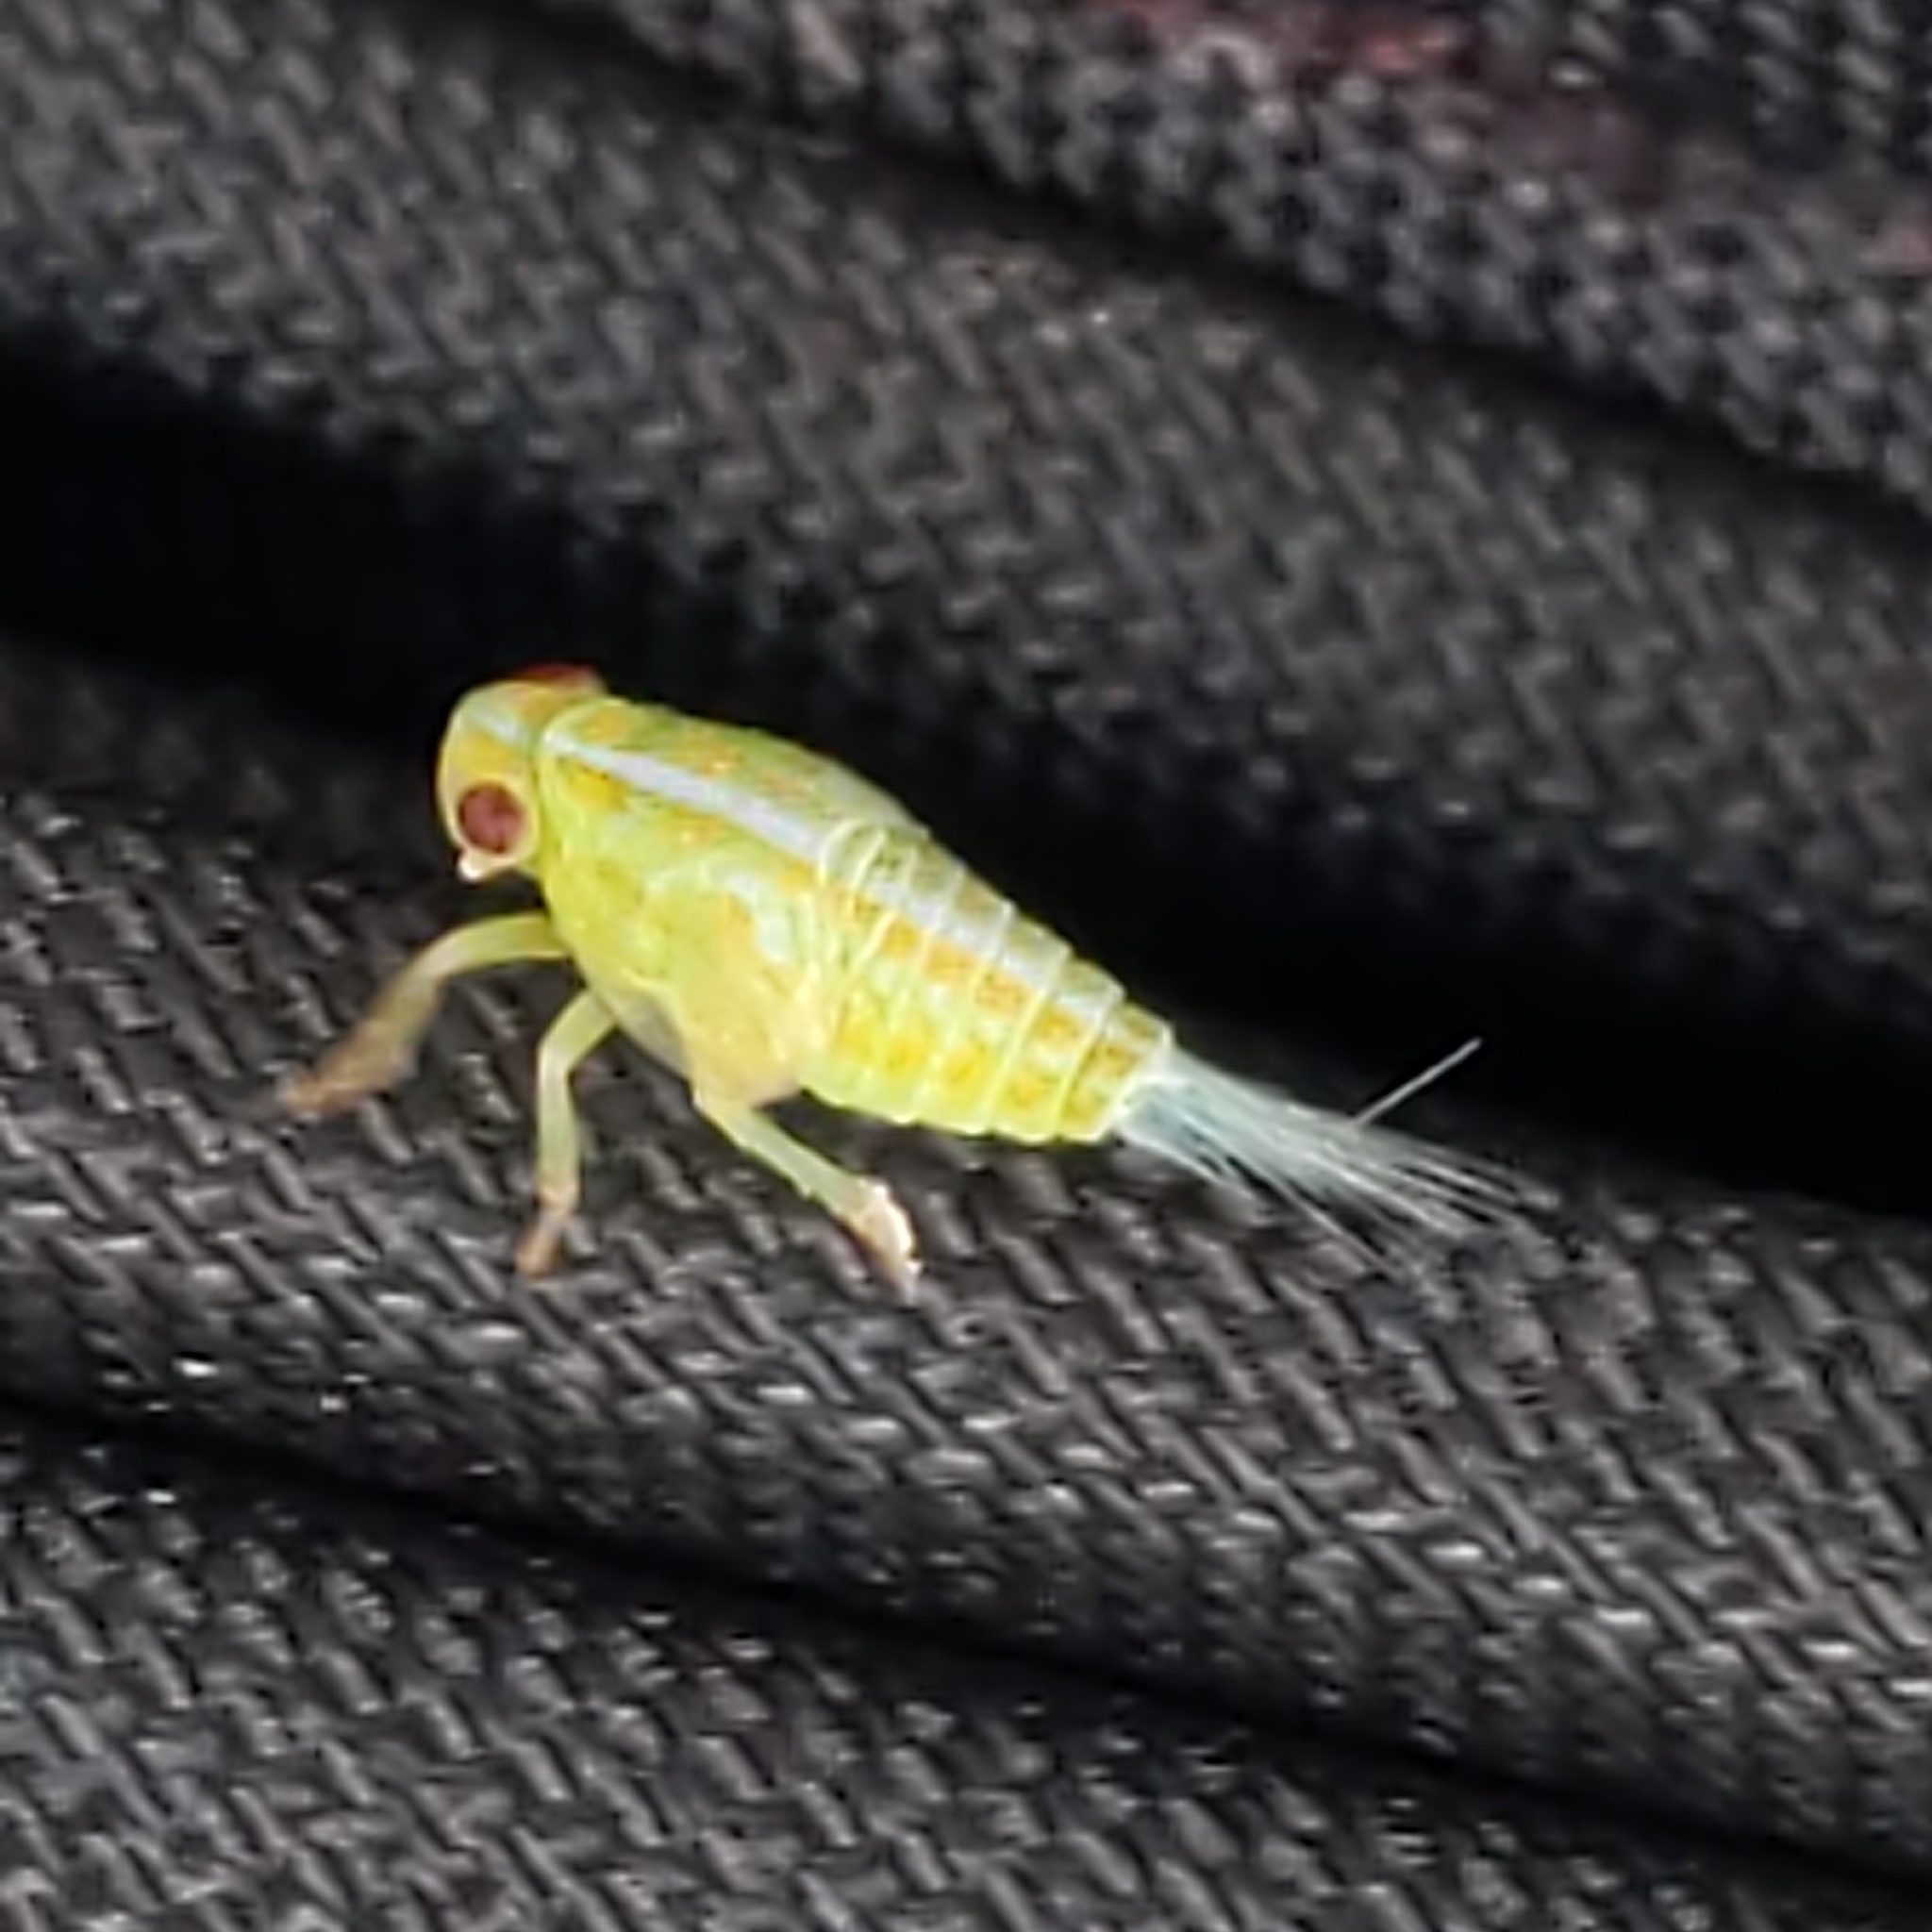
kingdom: Animalia
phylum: Arthropoda
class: Insecta
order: Hemiptera
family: Issidae
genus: Aplos
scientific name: Aplos simplex
